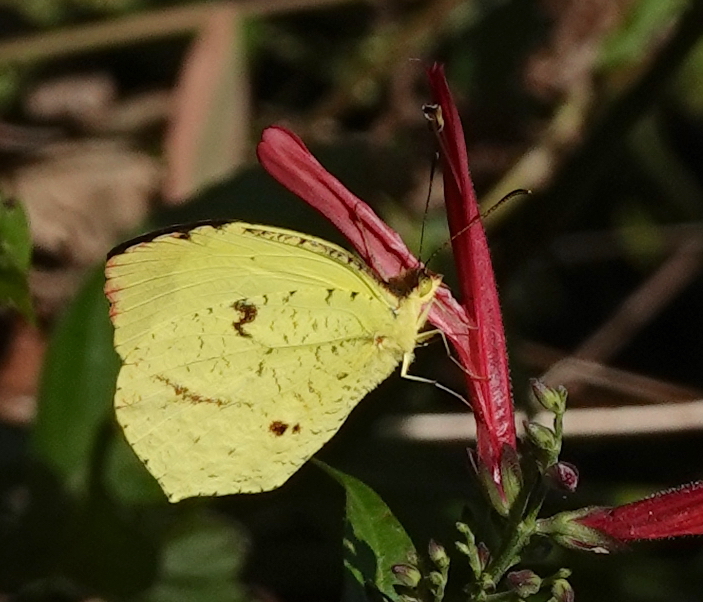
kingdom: Animalia
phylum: Arthropoda
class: Insecta
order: Lepidoptera
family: Pieridae
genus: Abaeis
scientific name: Abaeis
